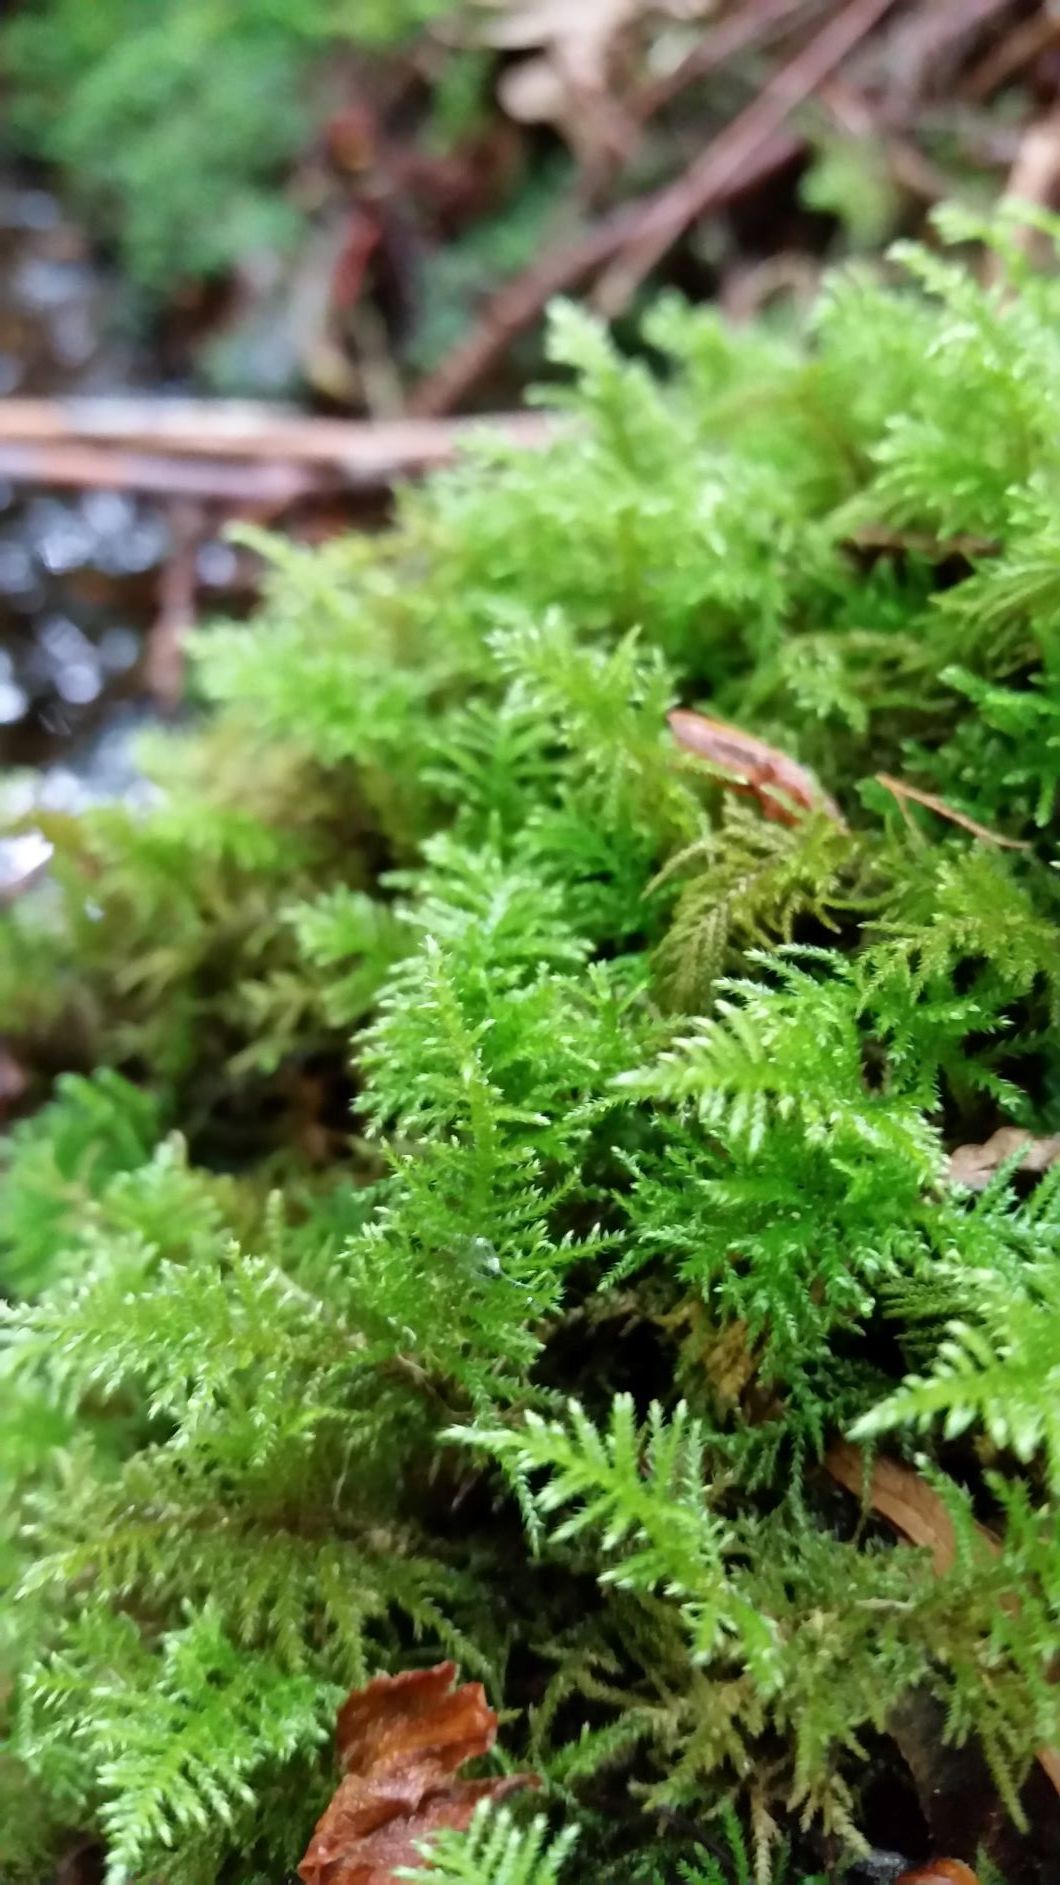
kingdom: Plantae
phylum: Bryophyta
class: Bryopsida
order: Hypnales
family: Brachytheciaceae
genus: Kindbergia
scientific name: Kindbergia oregana
